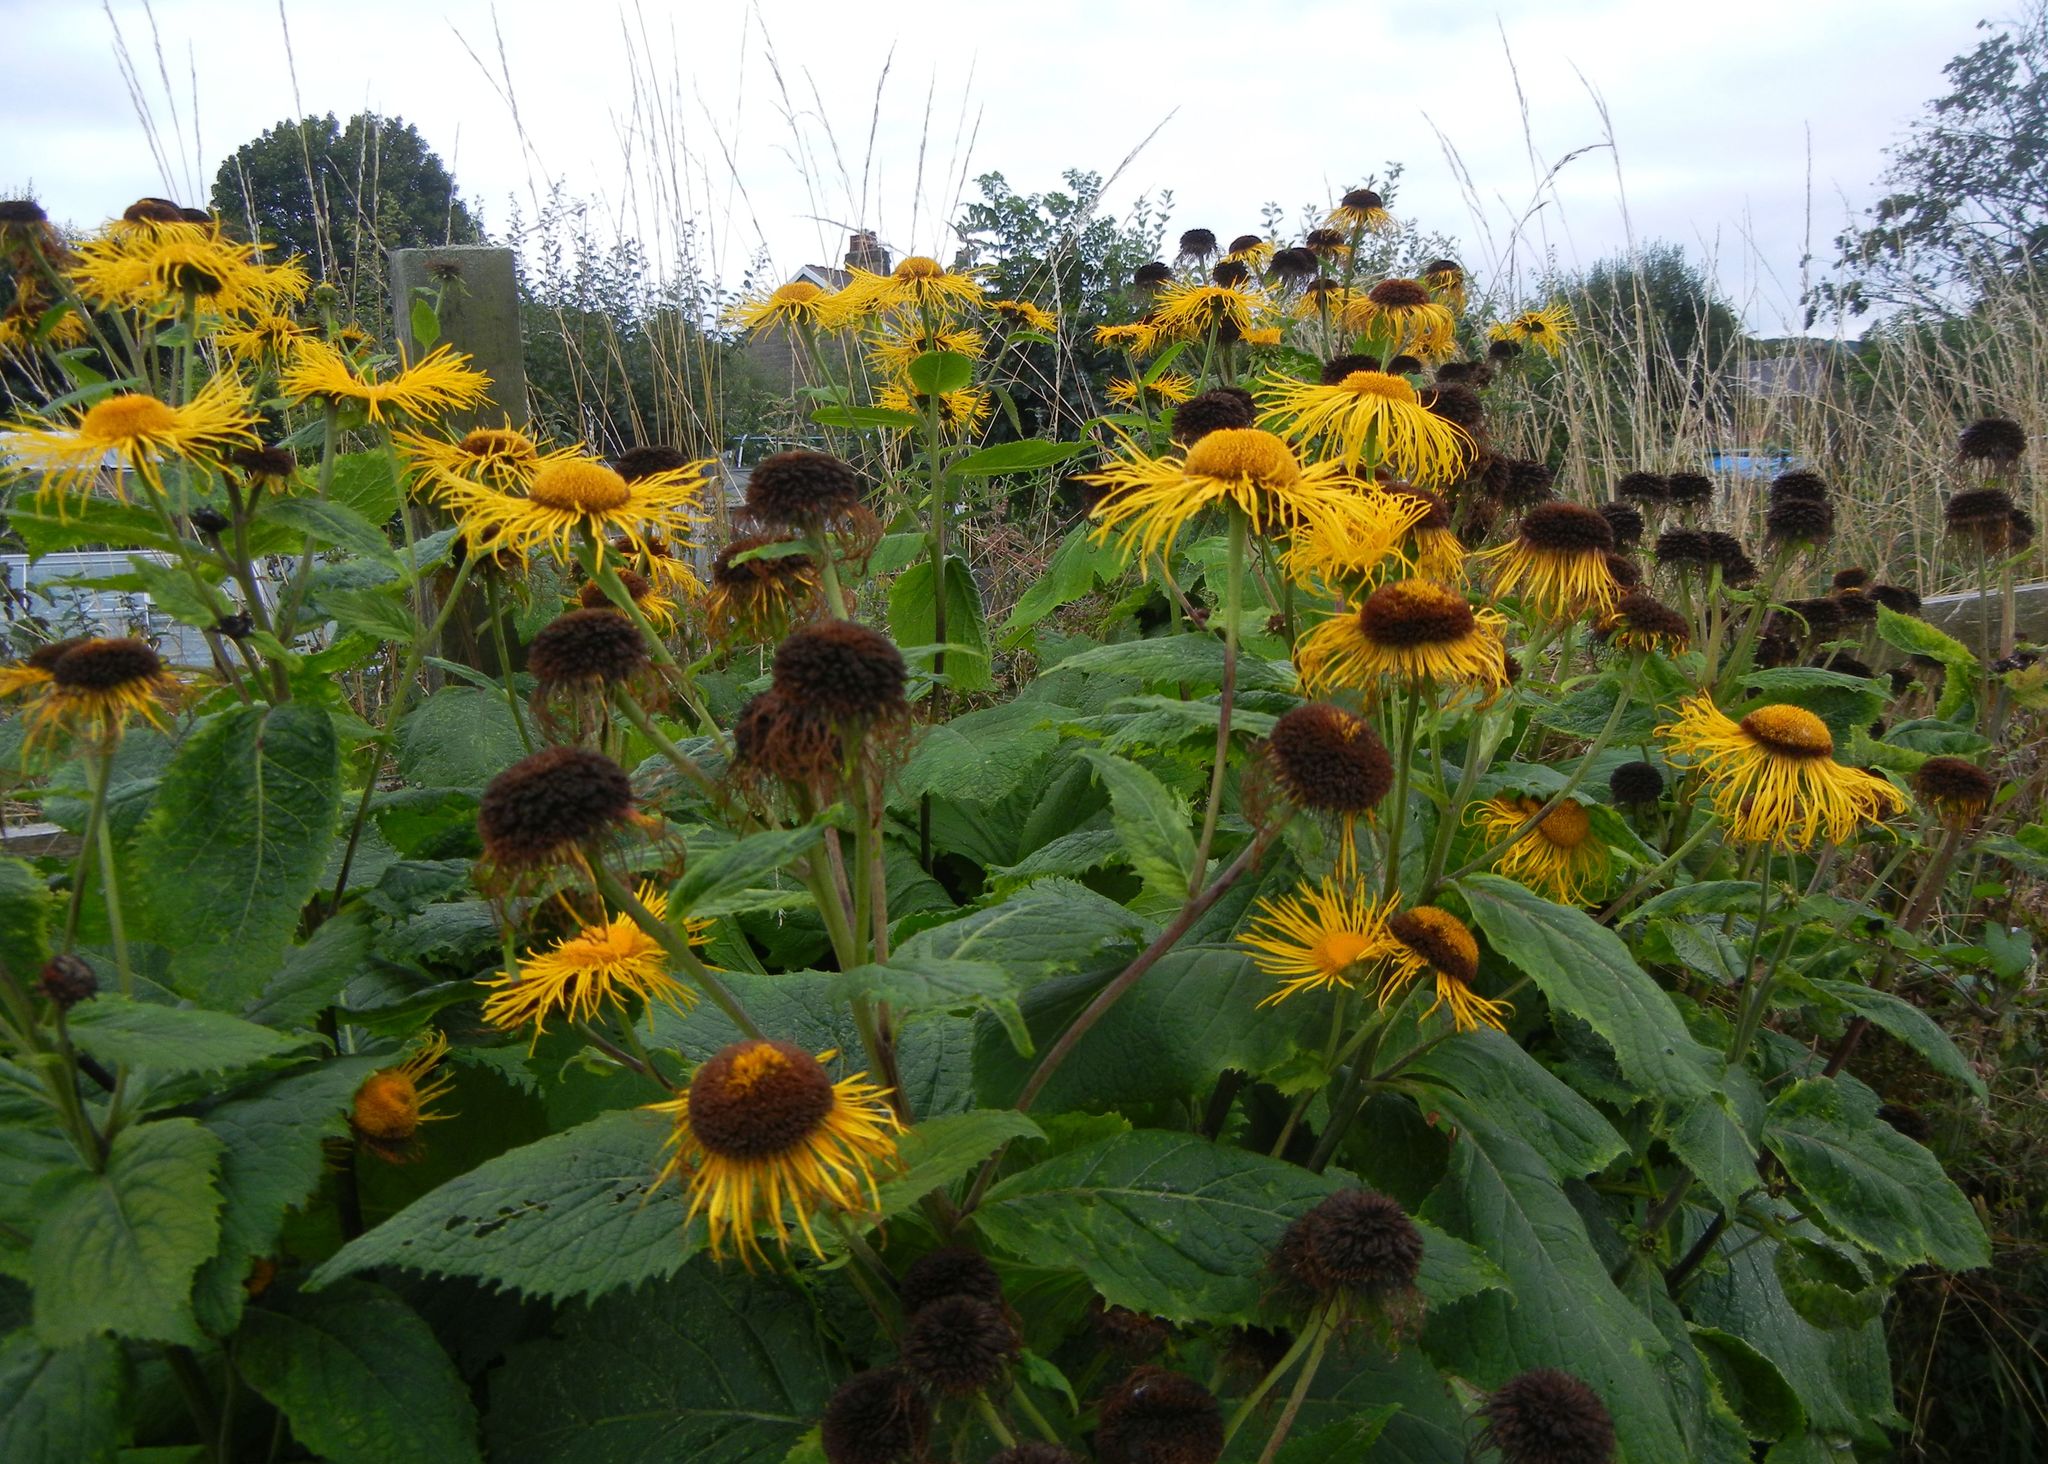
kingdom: Plantae
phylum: Tracheophyta
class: Magnoliopsida
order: Asterales
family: Asteraceae
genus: Telekia
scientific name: Telekia speciosa
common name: Yellow oxeye
